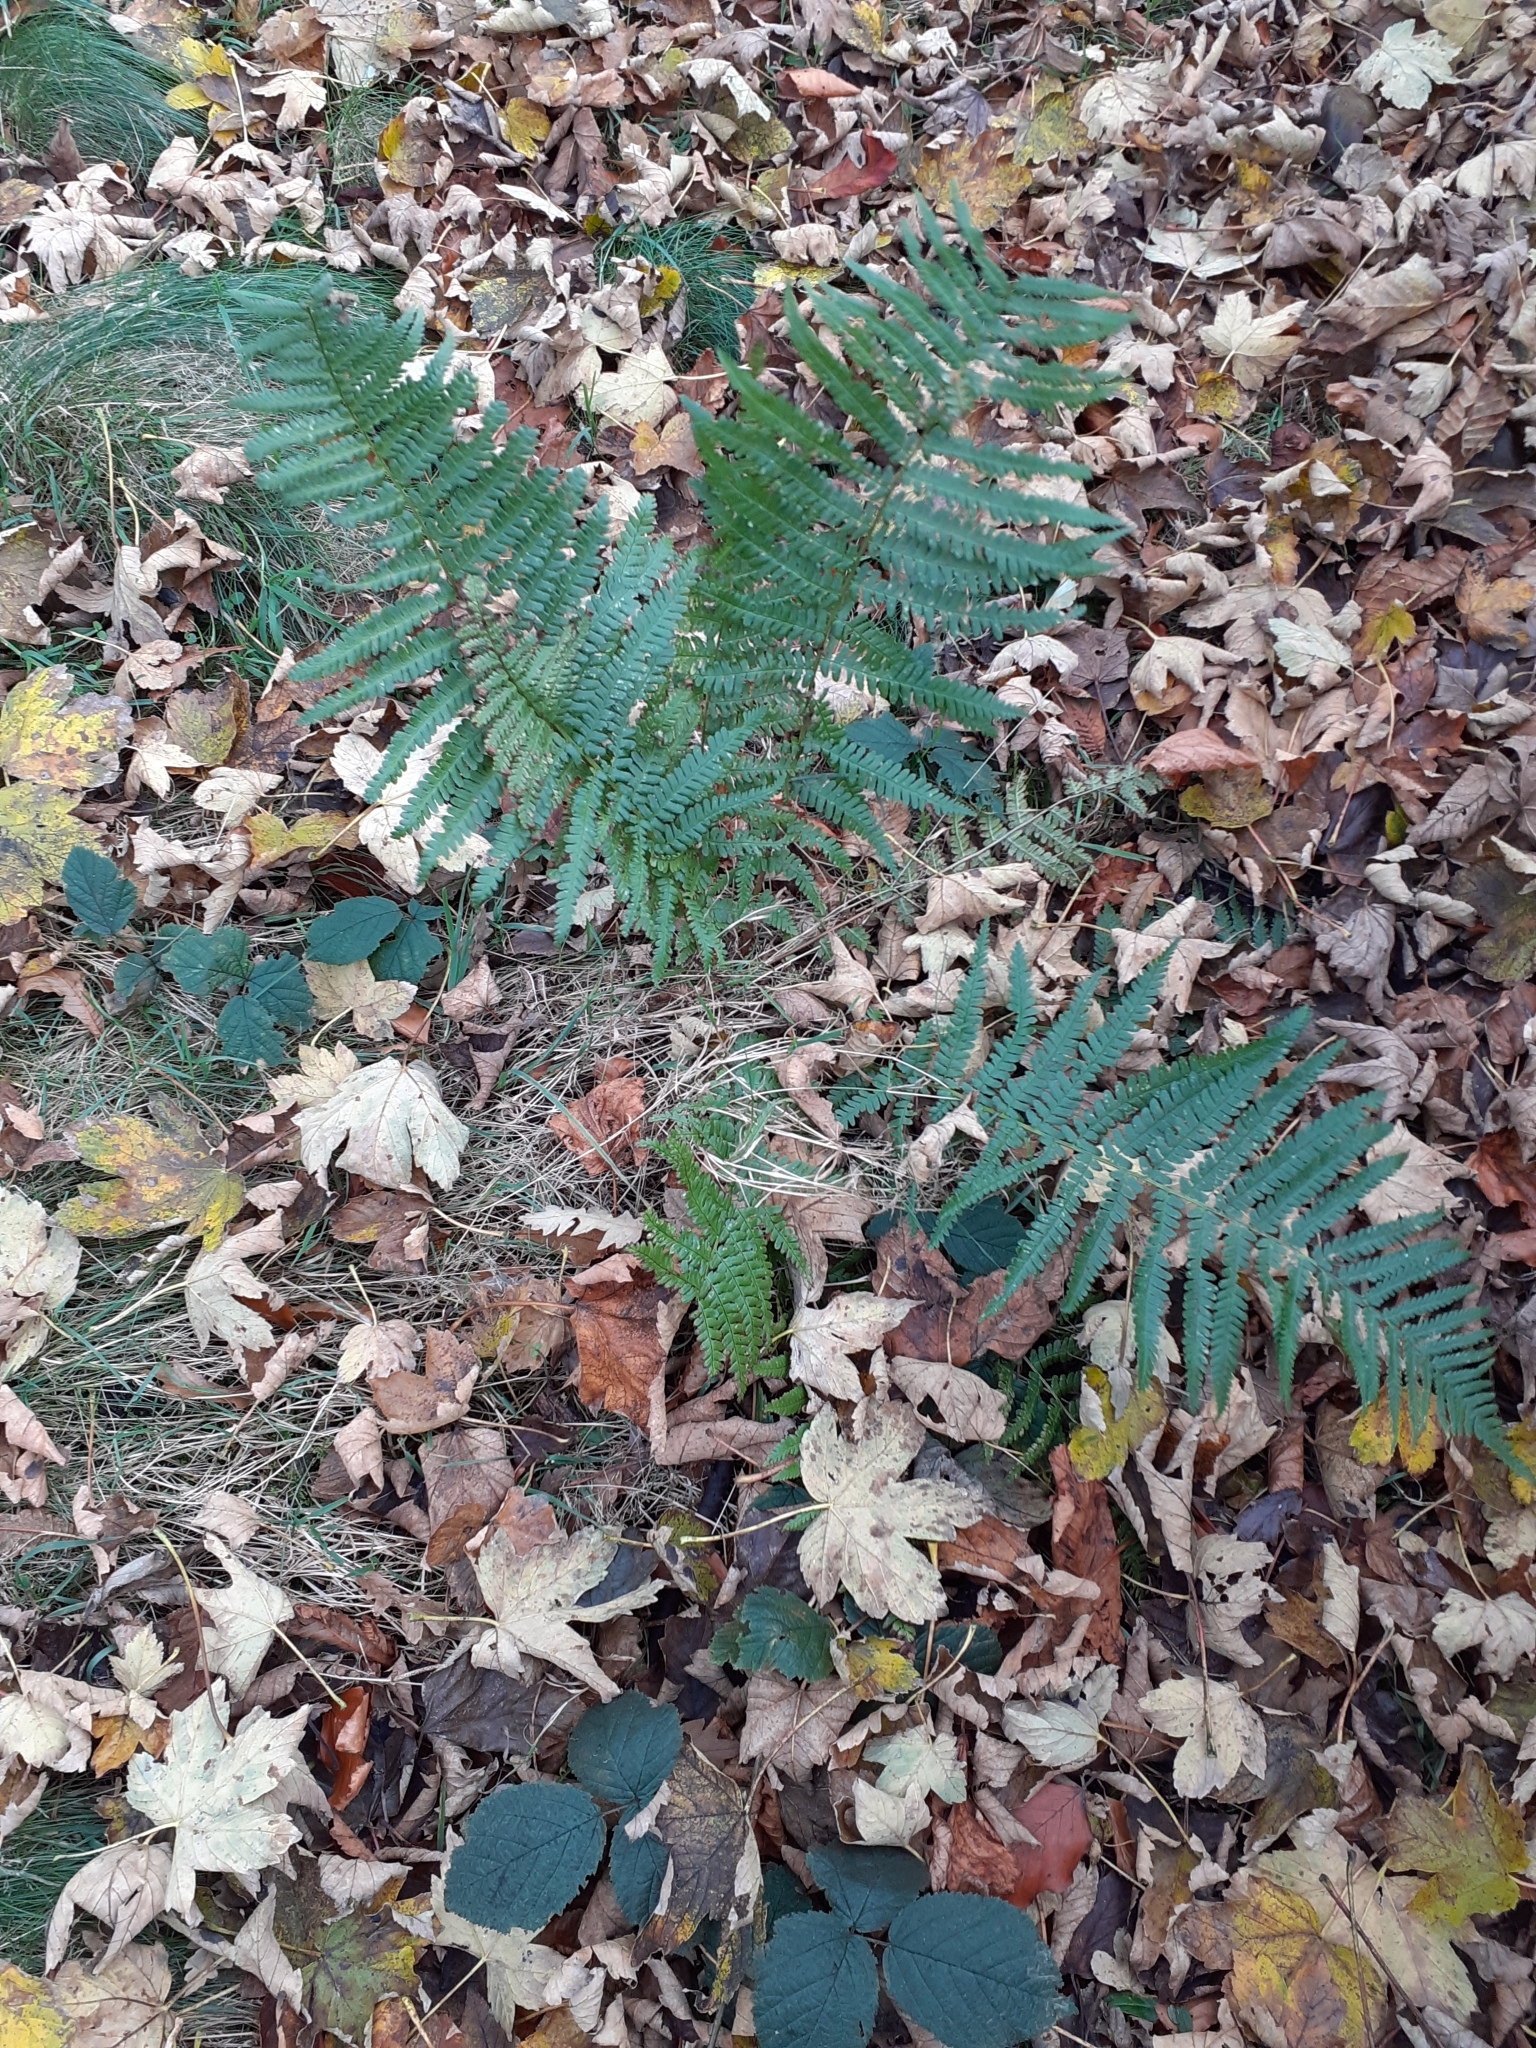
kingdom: Plantae
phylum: Tracheophyta
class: Polypodiopsida
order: Polypodiales
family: Dryopteridaceae
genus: Dryopteris
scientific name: Dryopteris filix-mas
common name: Male fern
